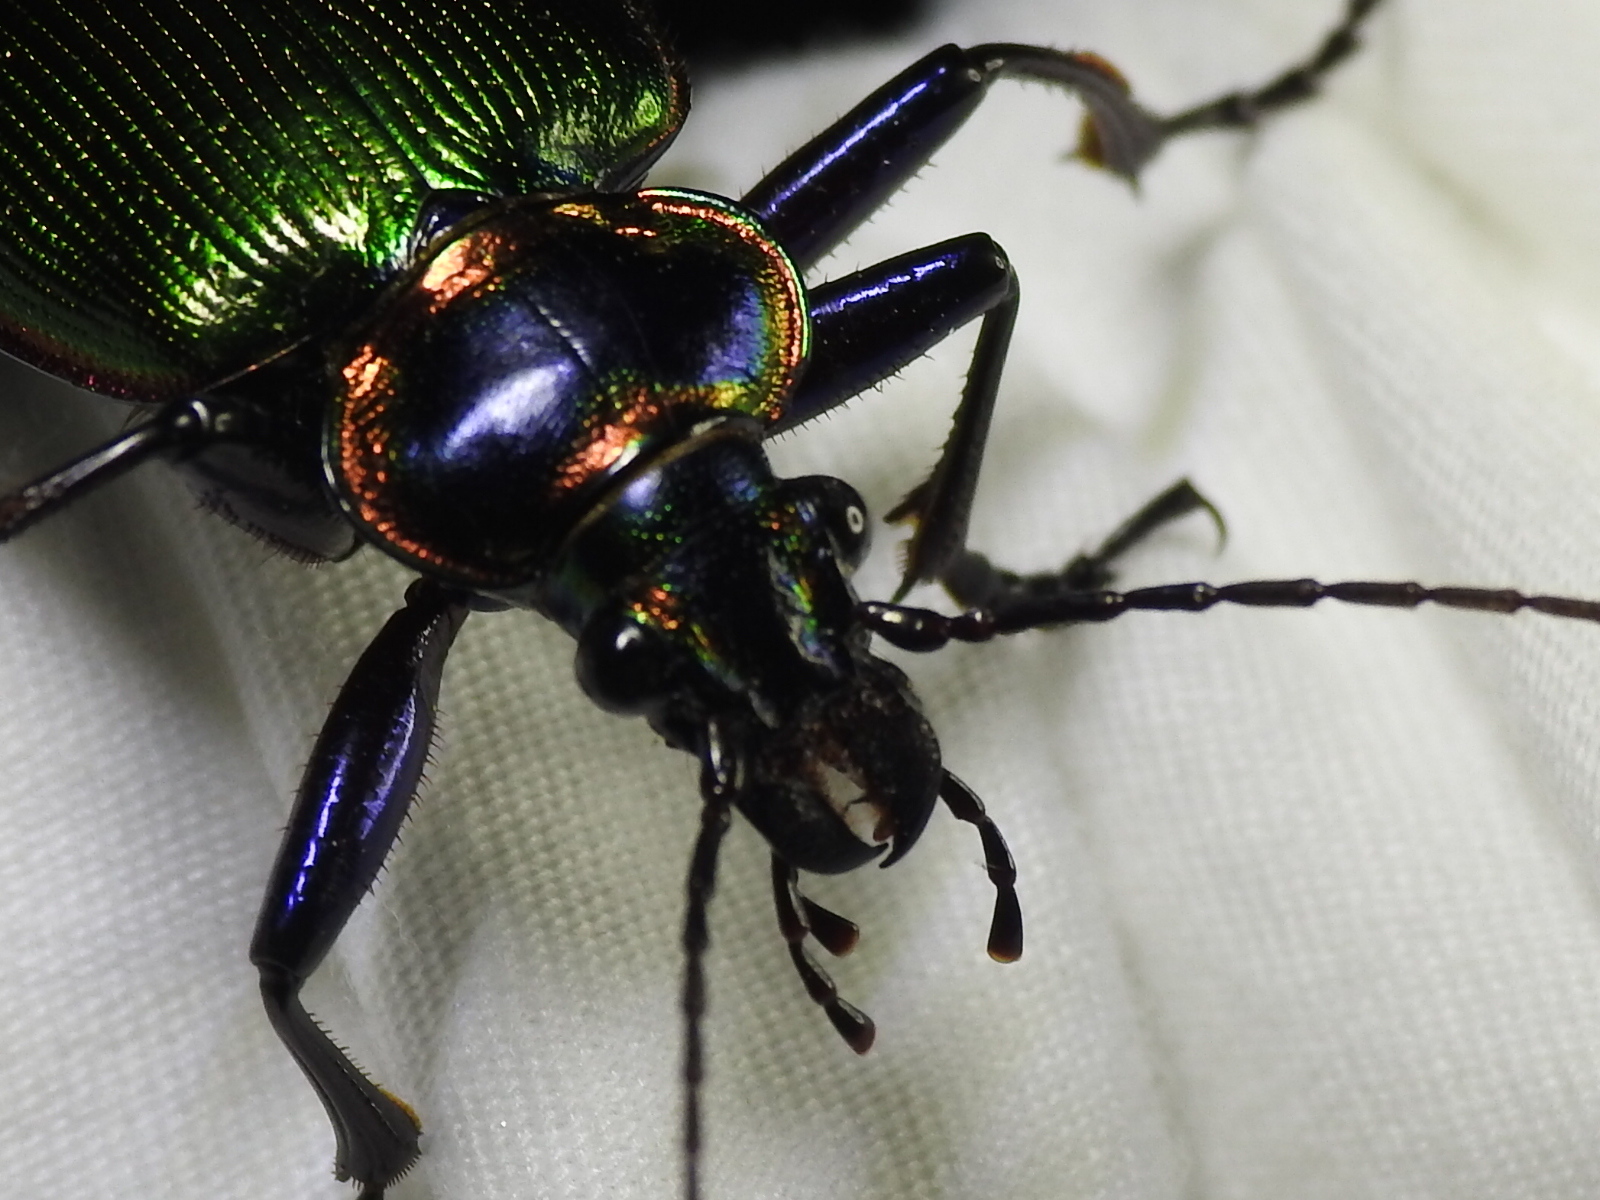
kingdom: Animalia
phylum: Arthropoda
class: Insecta
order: Coleoptera
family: Carabidae
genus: Calosoma
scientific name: Calosoma scrutator
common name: Fiery searcher beetle
